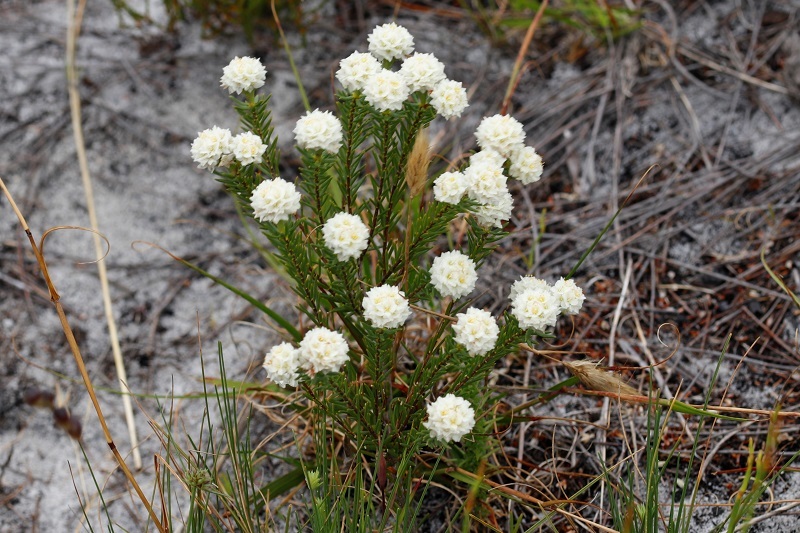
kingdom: Plantae
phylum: Tracheophyta
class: Magnoliopsida
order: Malvales
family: Thymelaeaceae
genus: Lachnaea
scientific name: Lachnaea densiflora
